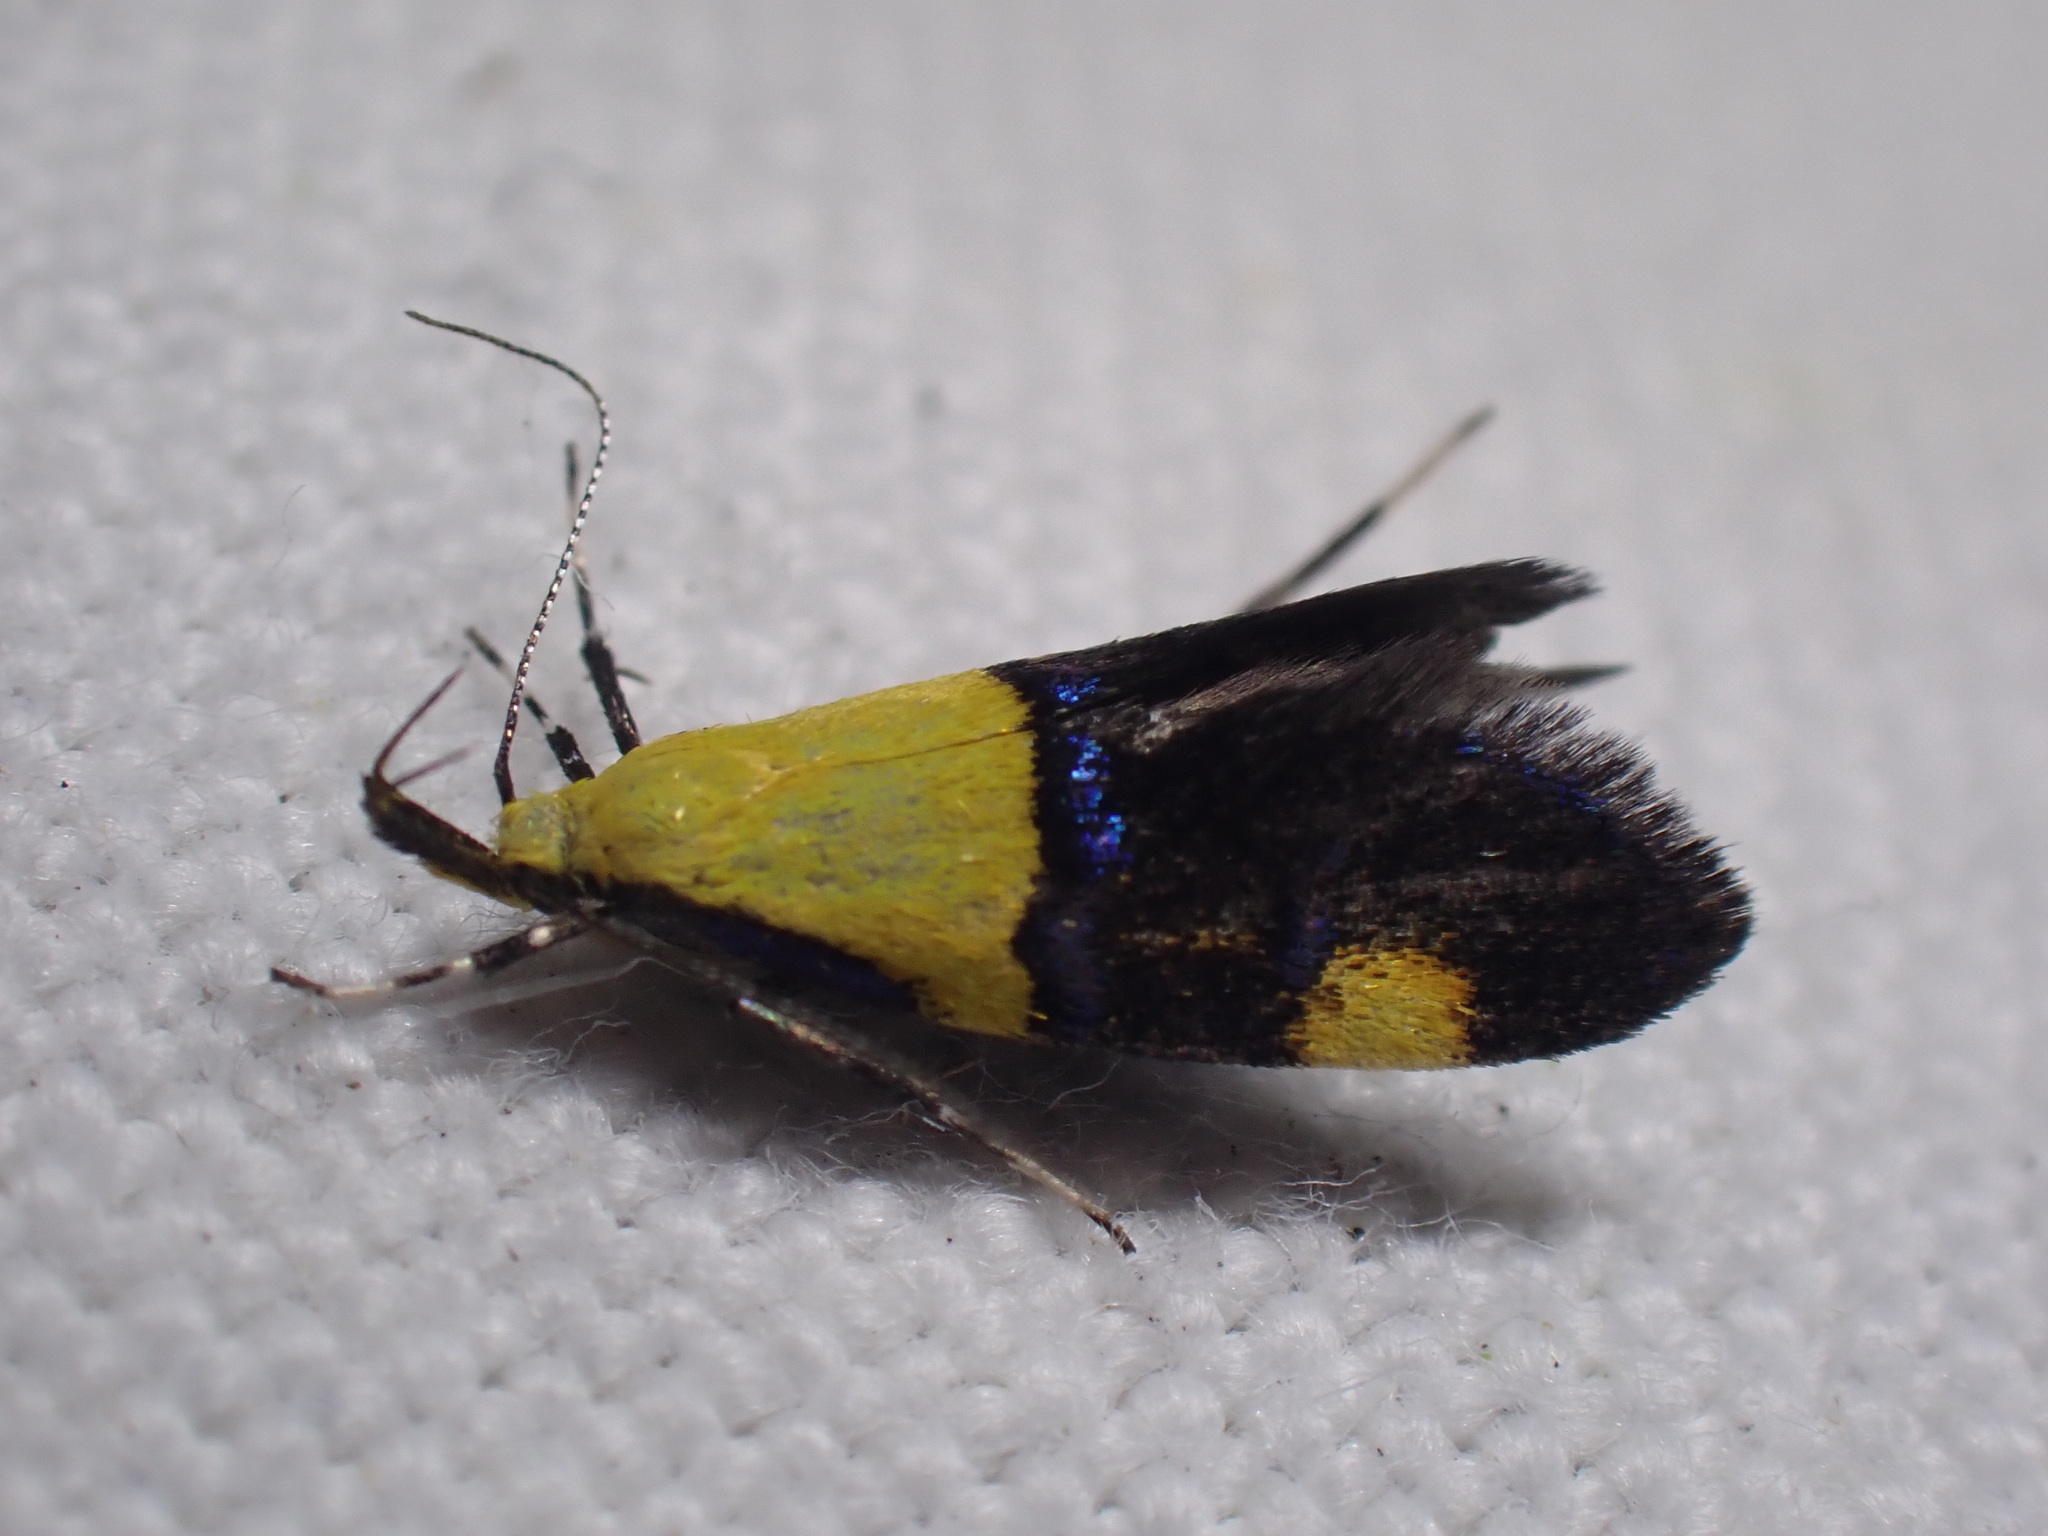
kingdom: Animalia
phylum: Arthropoda
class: Insecta
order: Lepidoptera
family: Oecophoridae
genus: Oecophora
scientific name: Oecophora bractella
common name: Gold-base tubic
